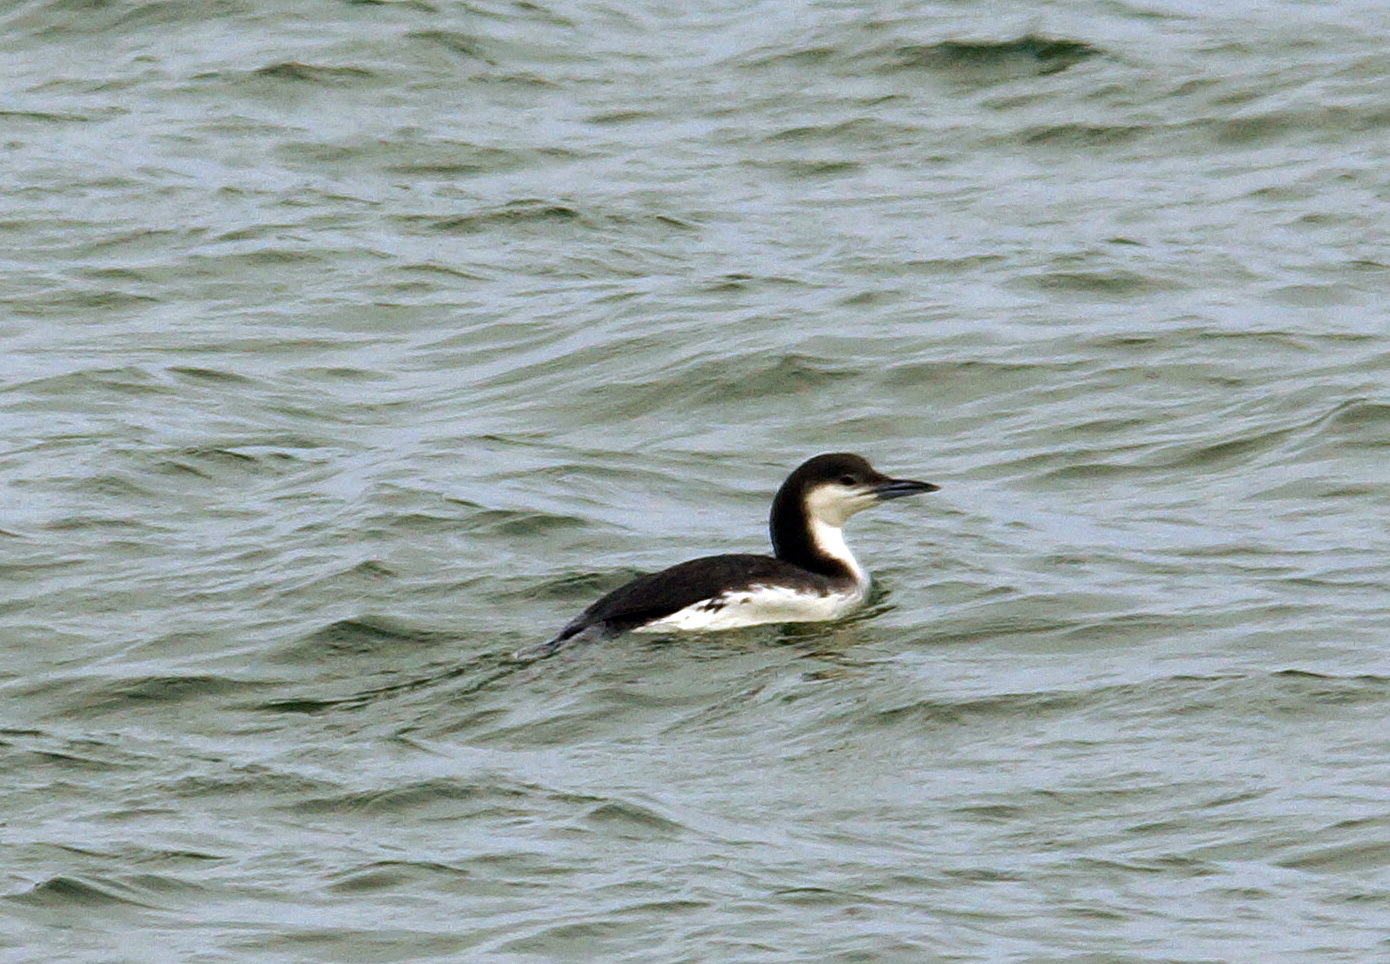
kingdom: Animalia
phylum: Chordata
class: Aves
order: Gaviiformes
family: Gaviidae
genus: Gavia
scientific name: Gavia arctica
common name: Black-throated loon
